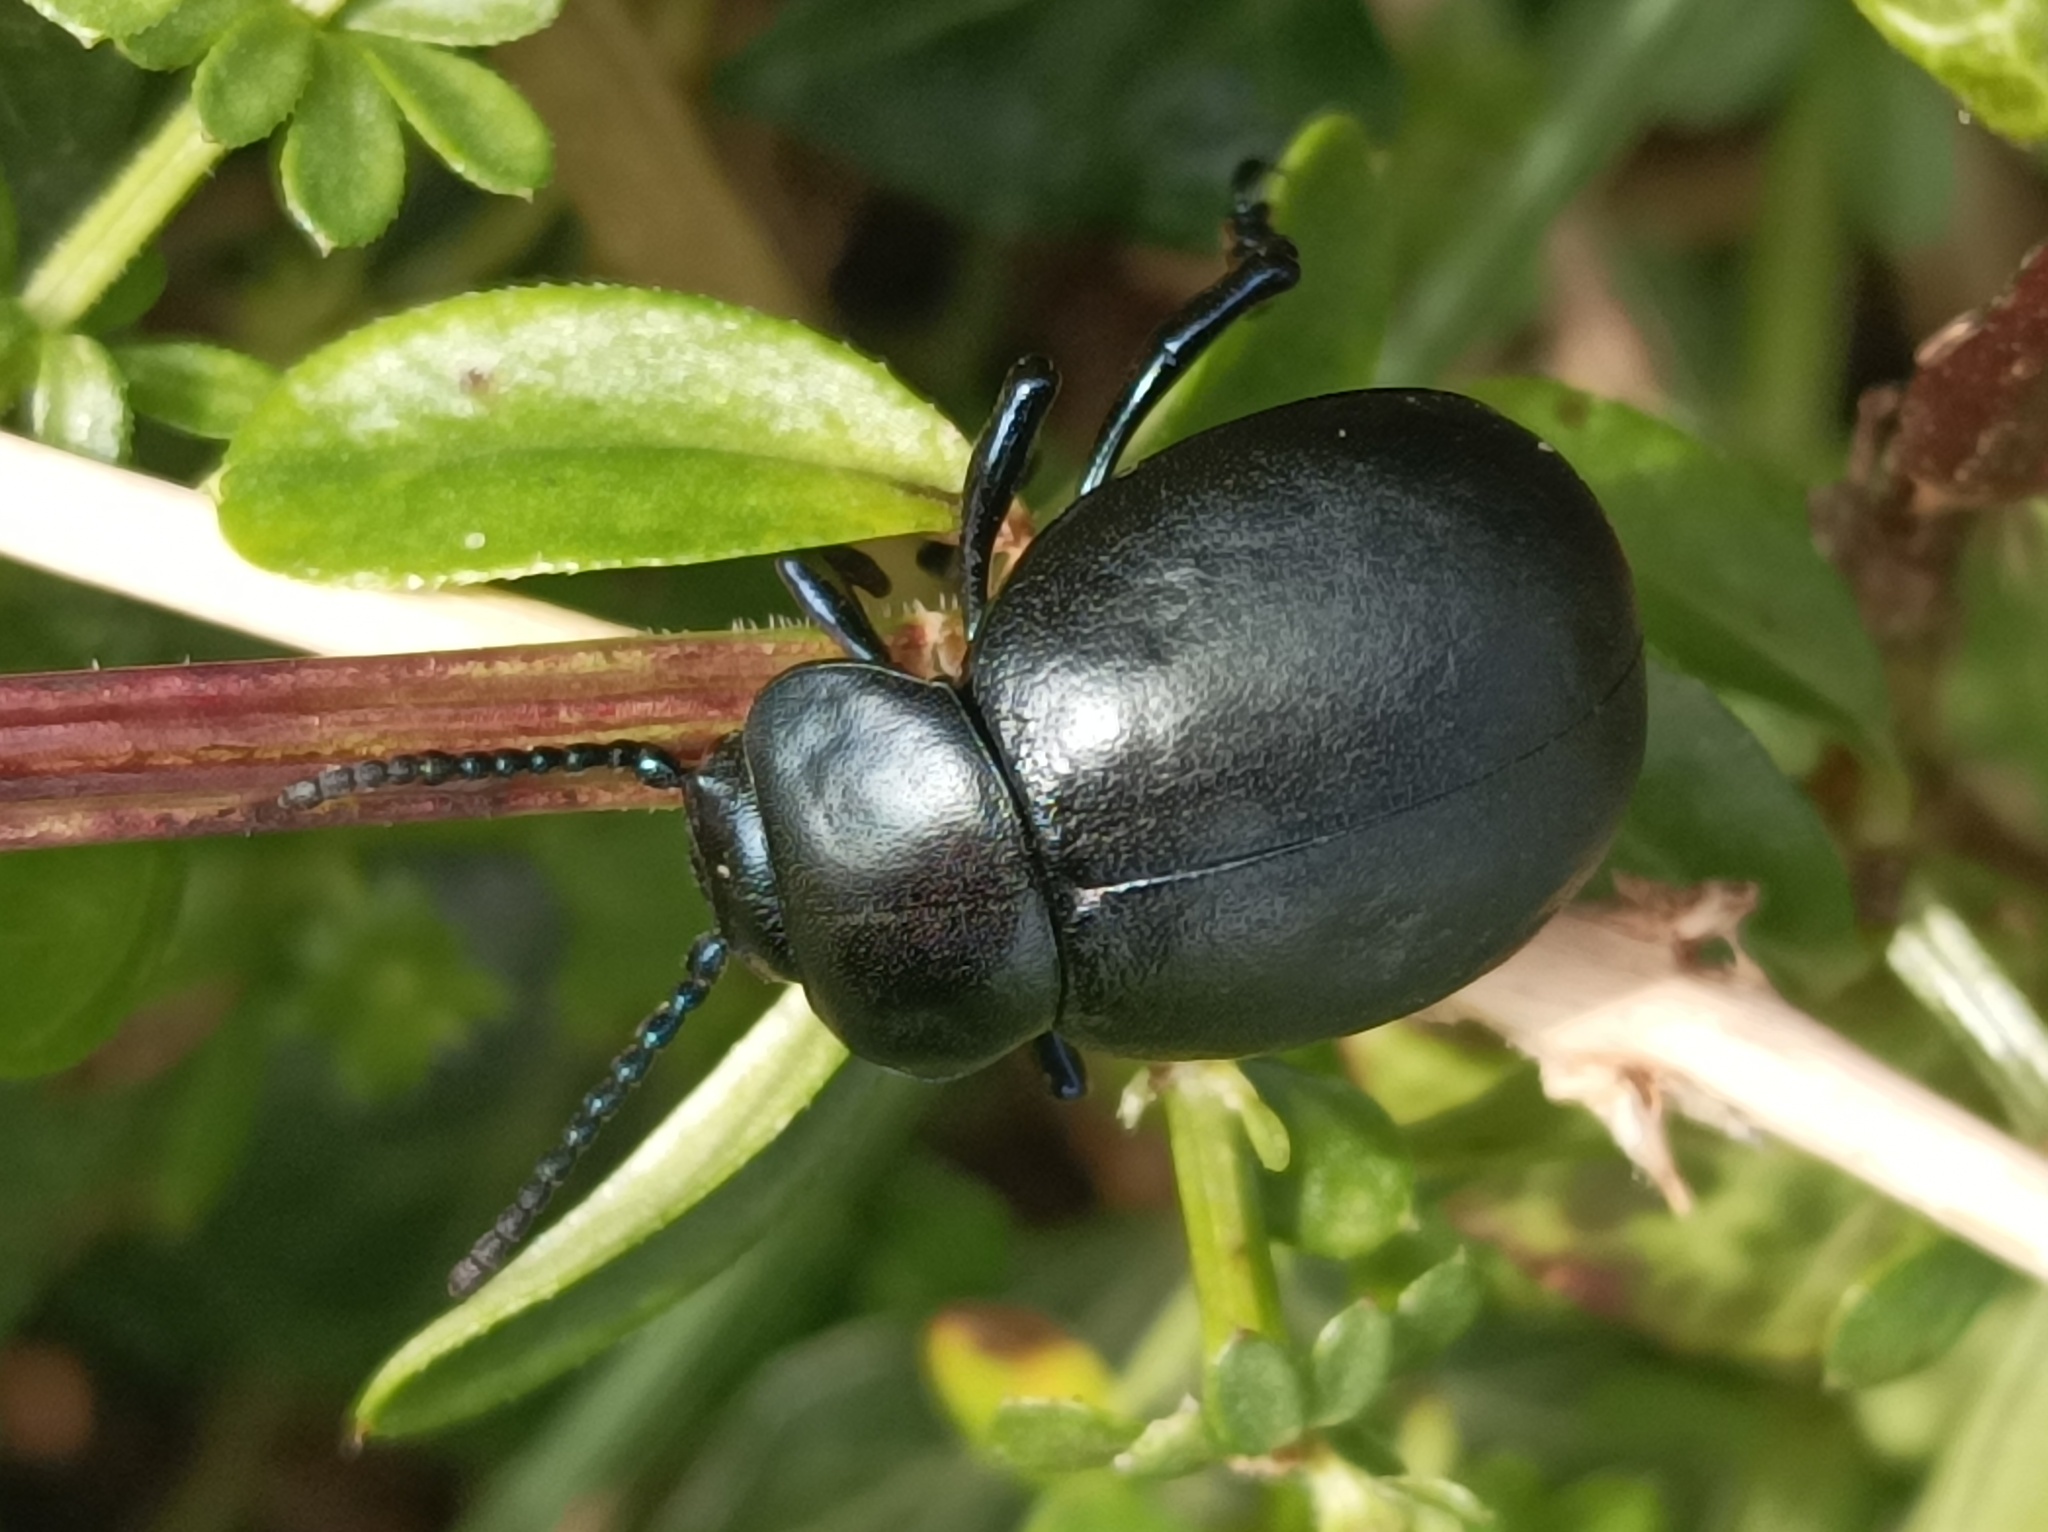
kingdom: Animalia
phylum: Arthropoda
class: Insecta
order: Coleoptera
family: Chrysomelidae
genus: Timarcha
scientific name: Timarcha tenebricosa
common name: Bloody-nosed beetle
